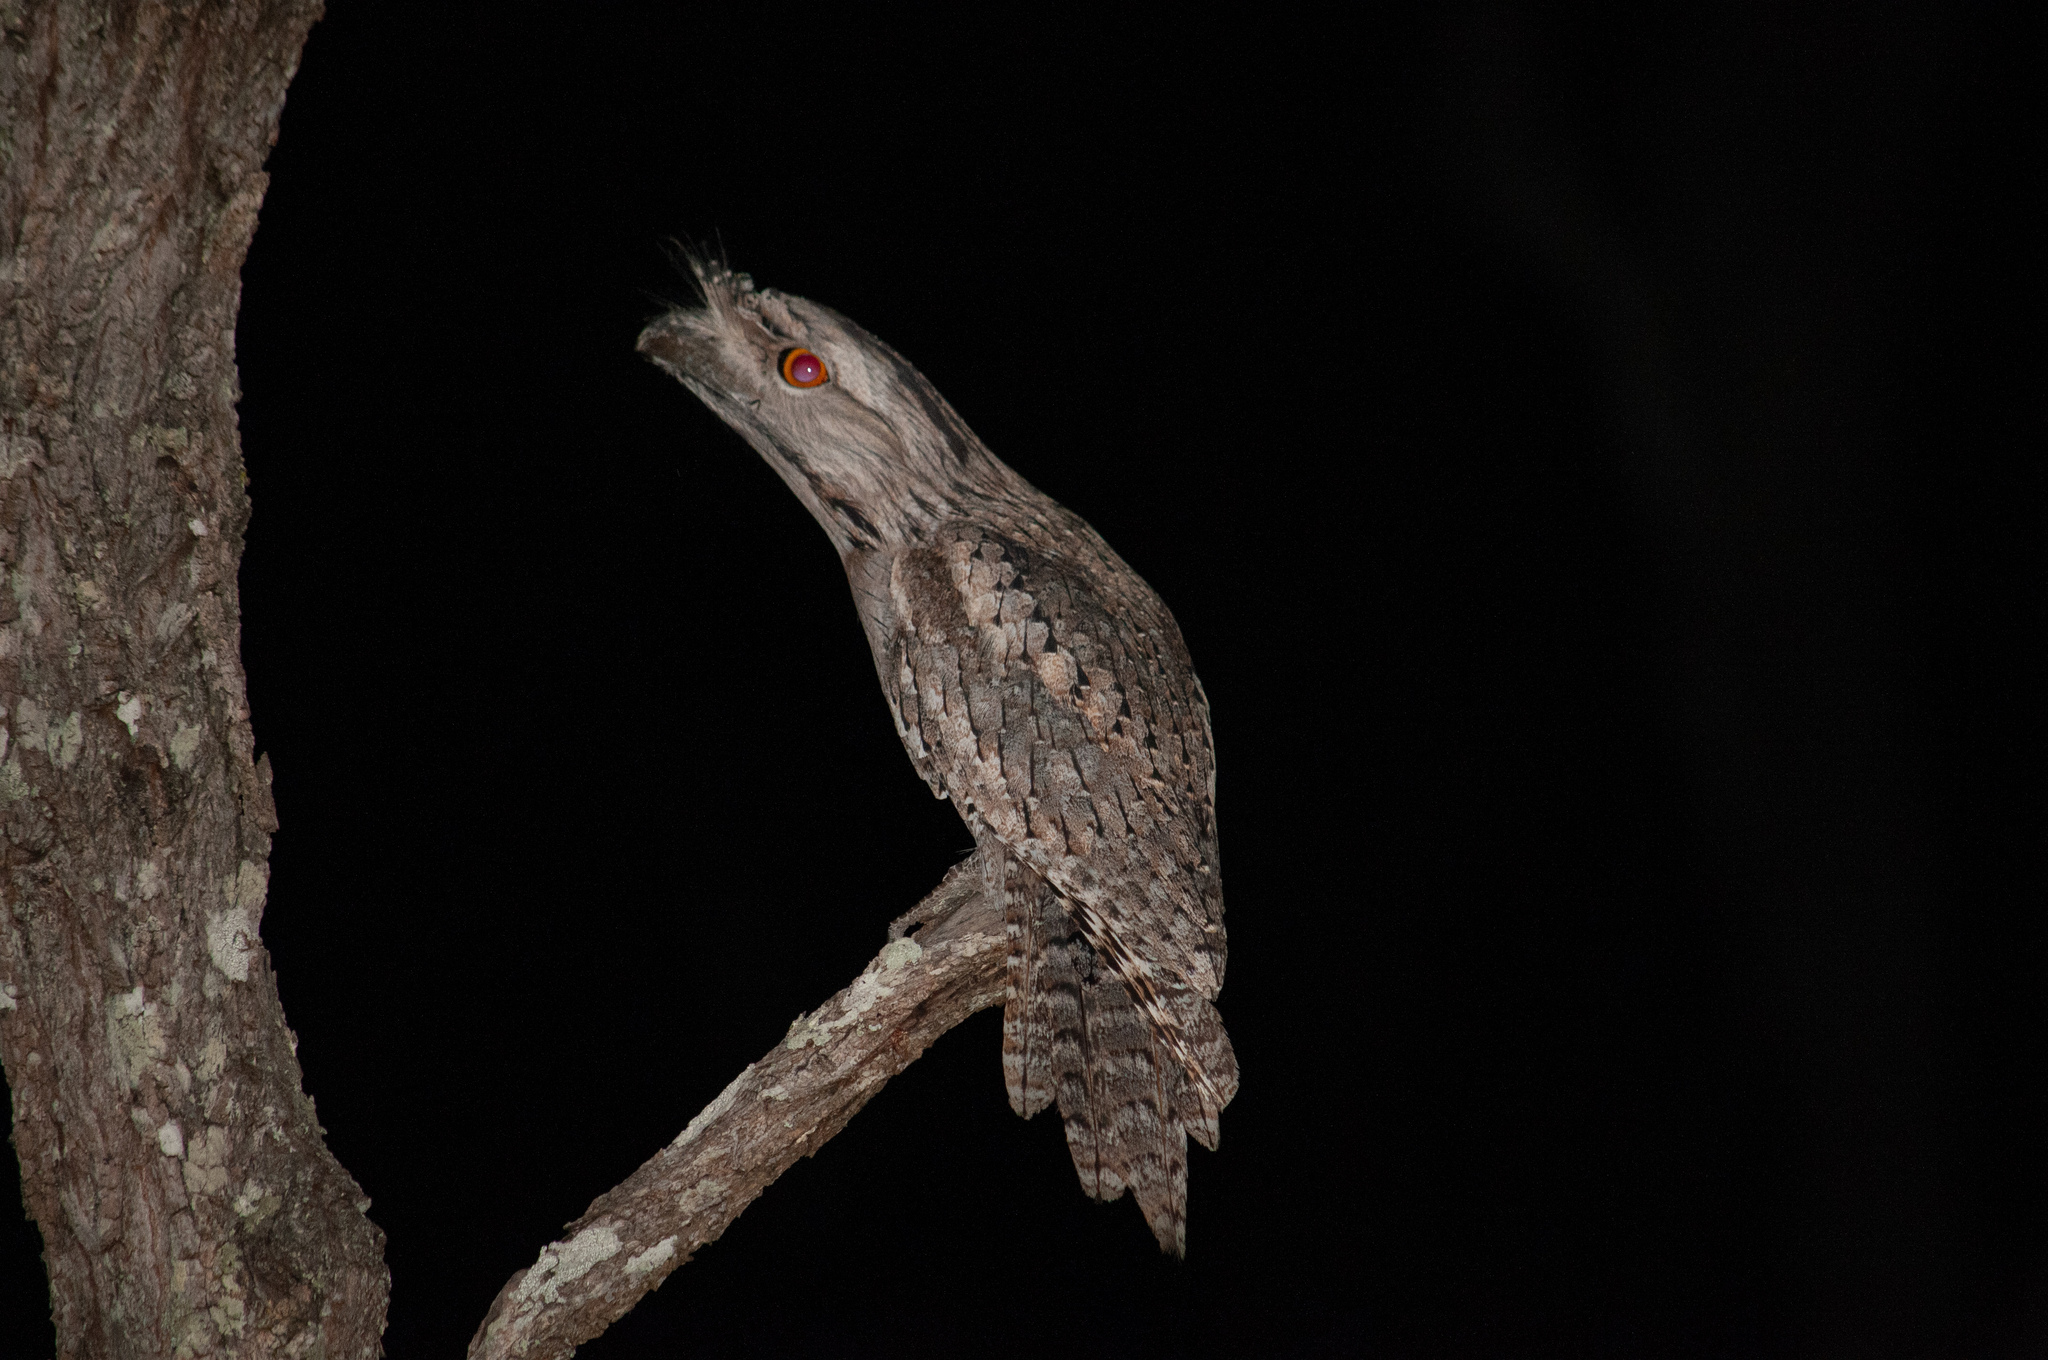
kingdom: Animalia
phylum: Chordata
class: Aves
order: Caprimulgiformes
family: Podargidae
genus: Podargus
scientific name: Podargus strigoides
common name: Tawny frogmouth
